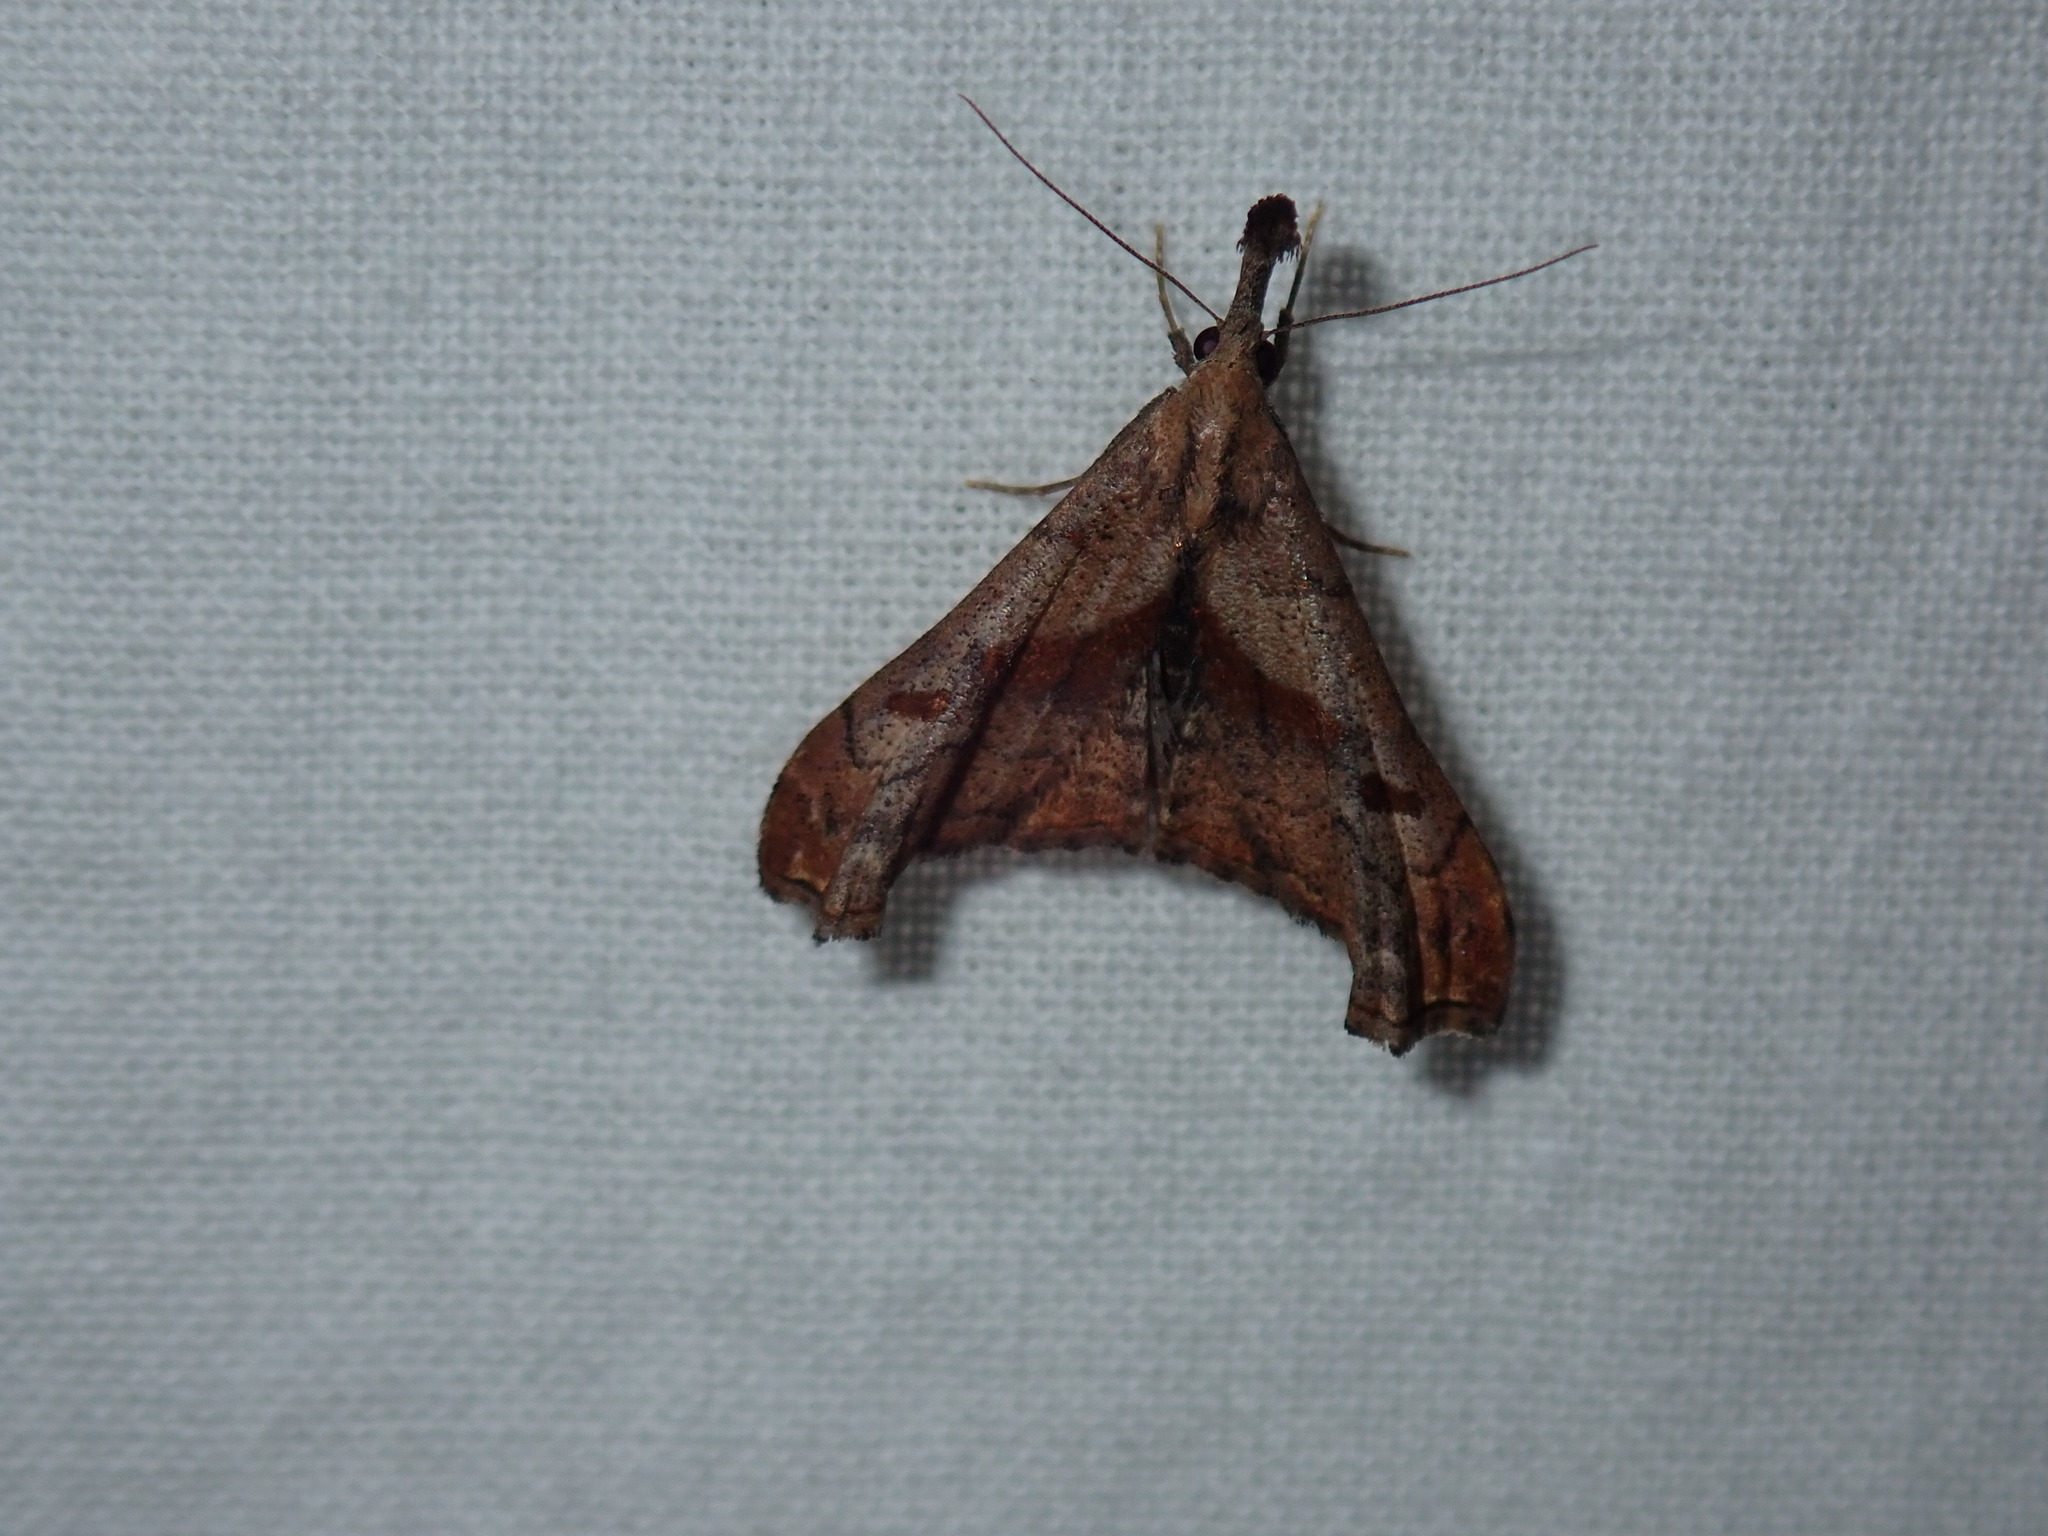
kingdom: Animalia
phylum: Arthropoda
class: Insecta
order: Lepidoptera
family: Erebidae
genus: Palthis
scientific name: Palthis angulalis
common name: Dark-spotted palthis moth
